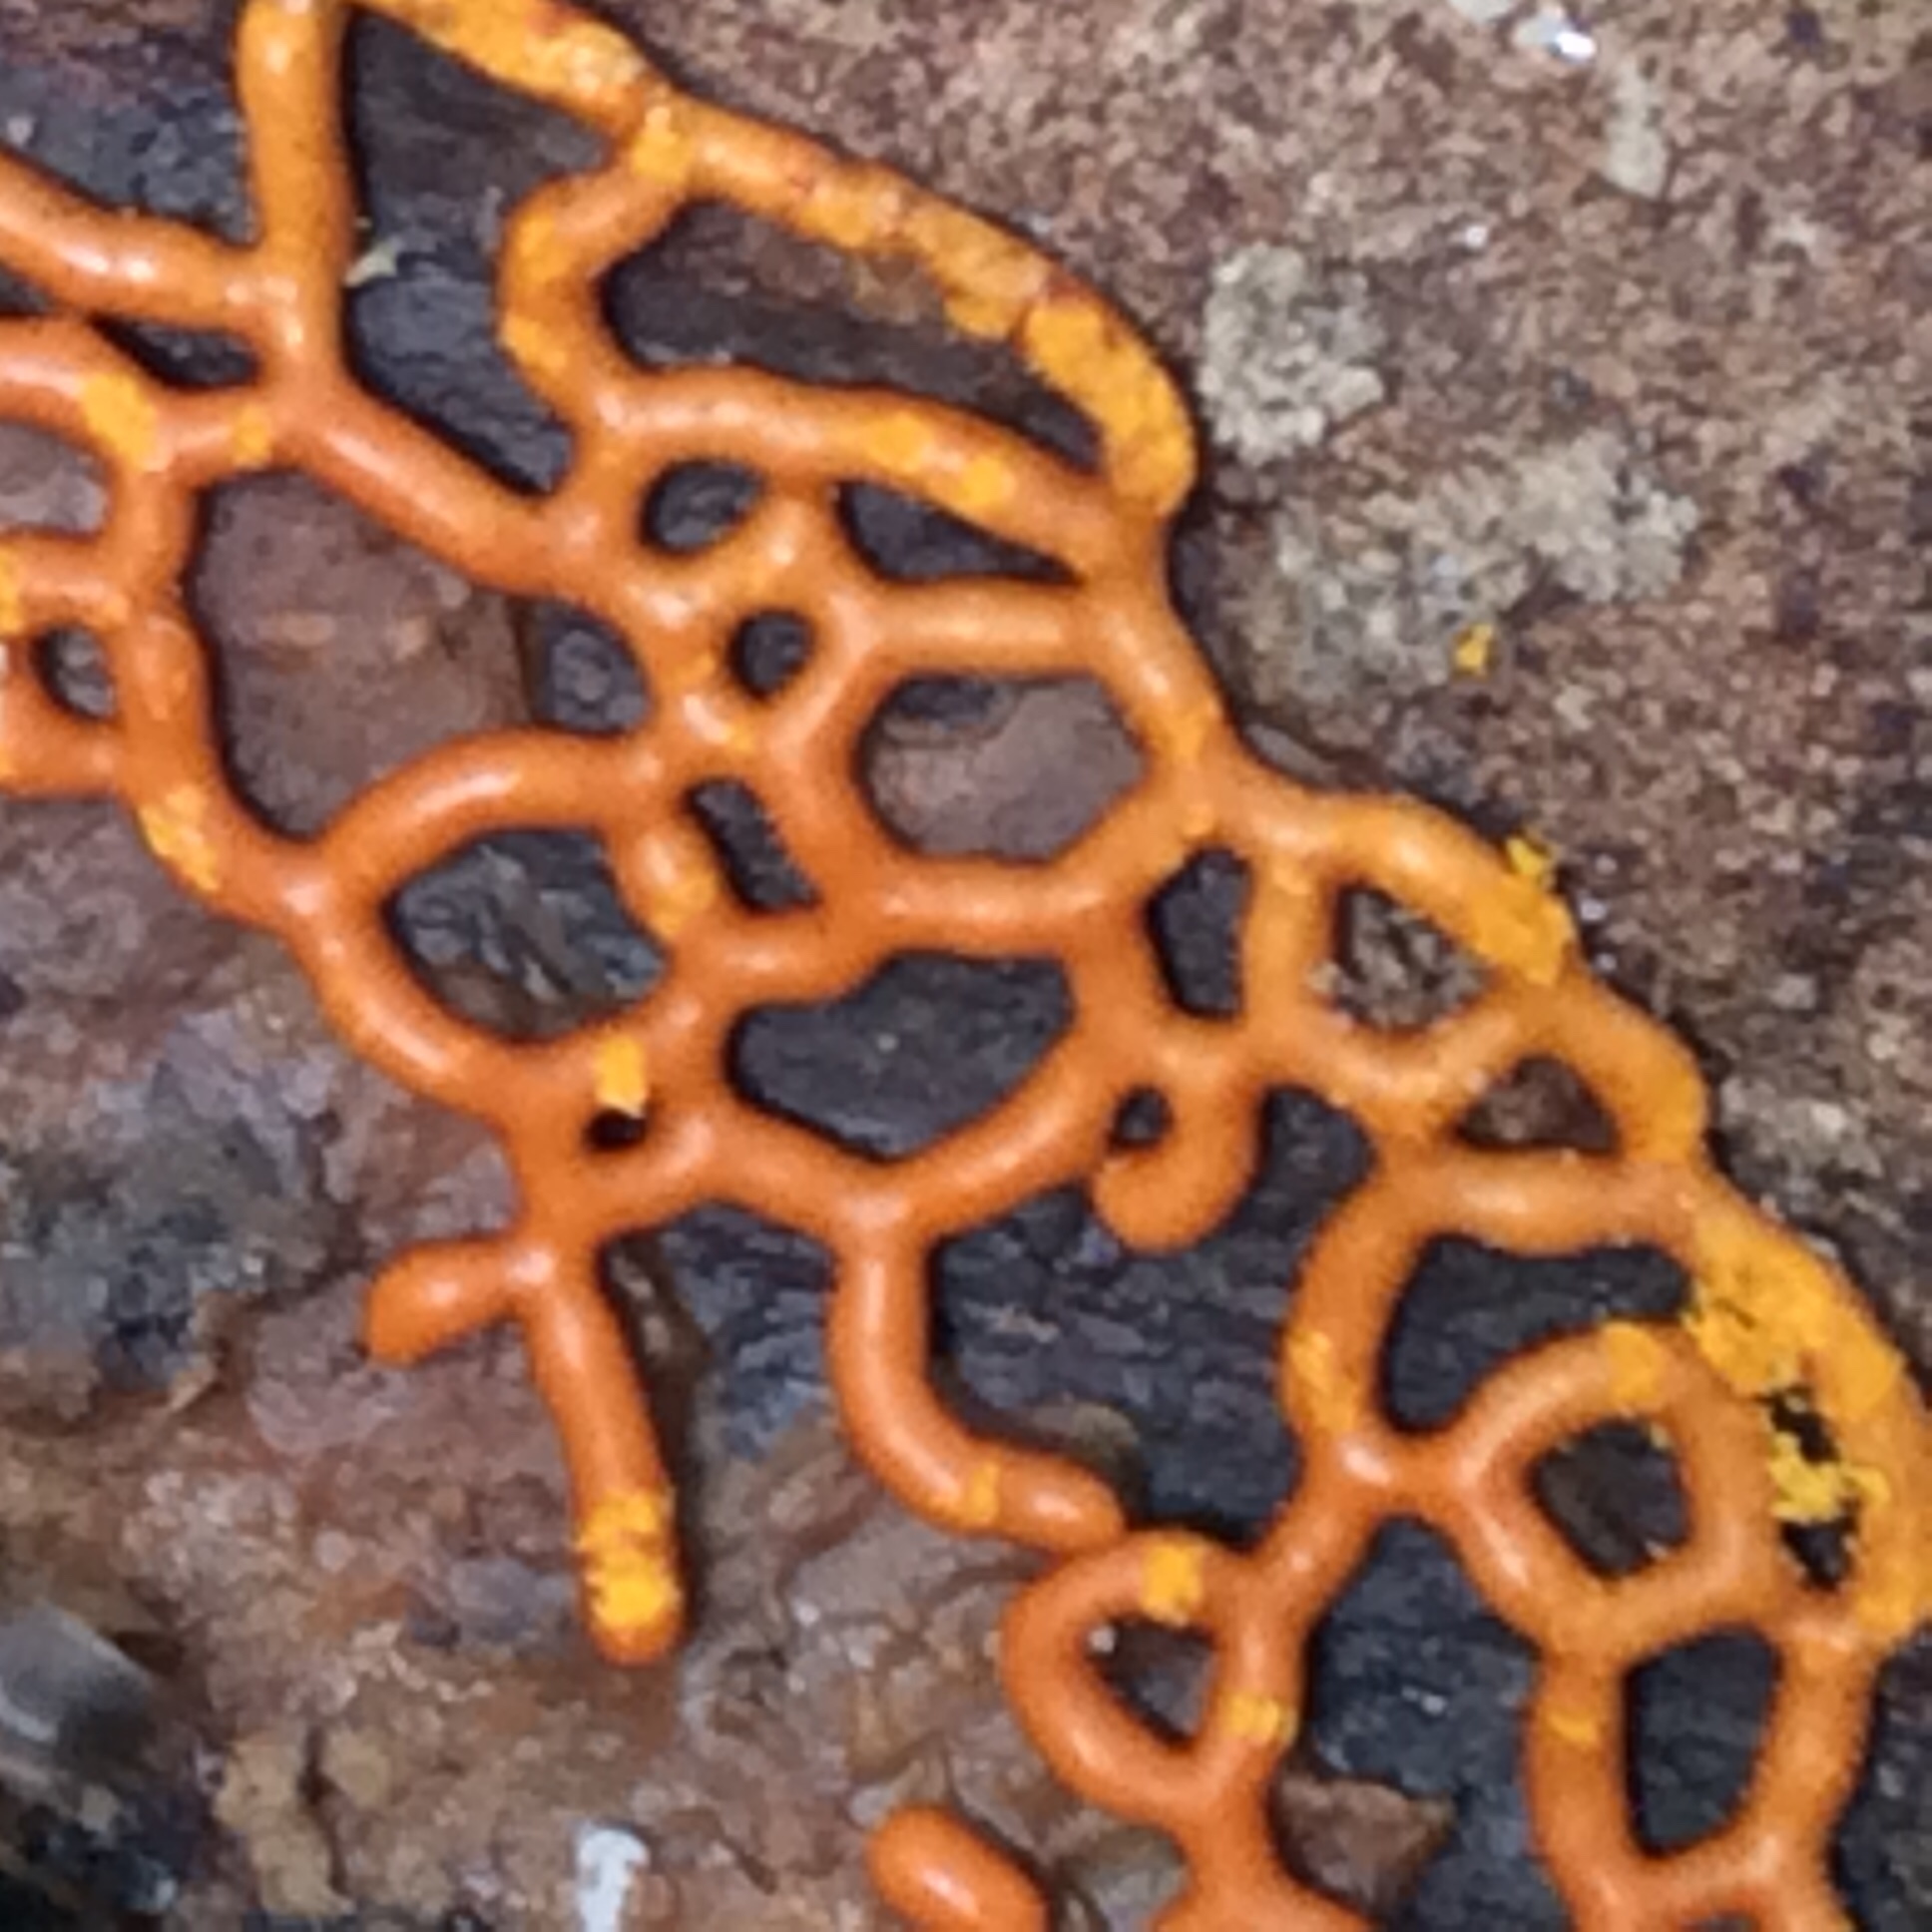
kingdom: Protozoa
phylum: Mycetozoa
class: Myxomycetes
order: Trichiales
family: Arcyriaceae
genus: Hemitrichia
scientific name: Hemitrichia serpula
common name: Pretzel slime mold
